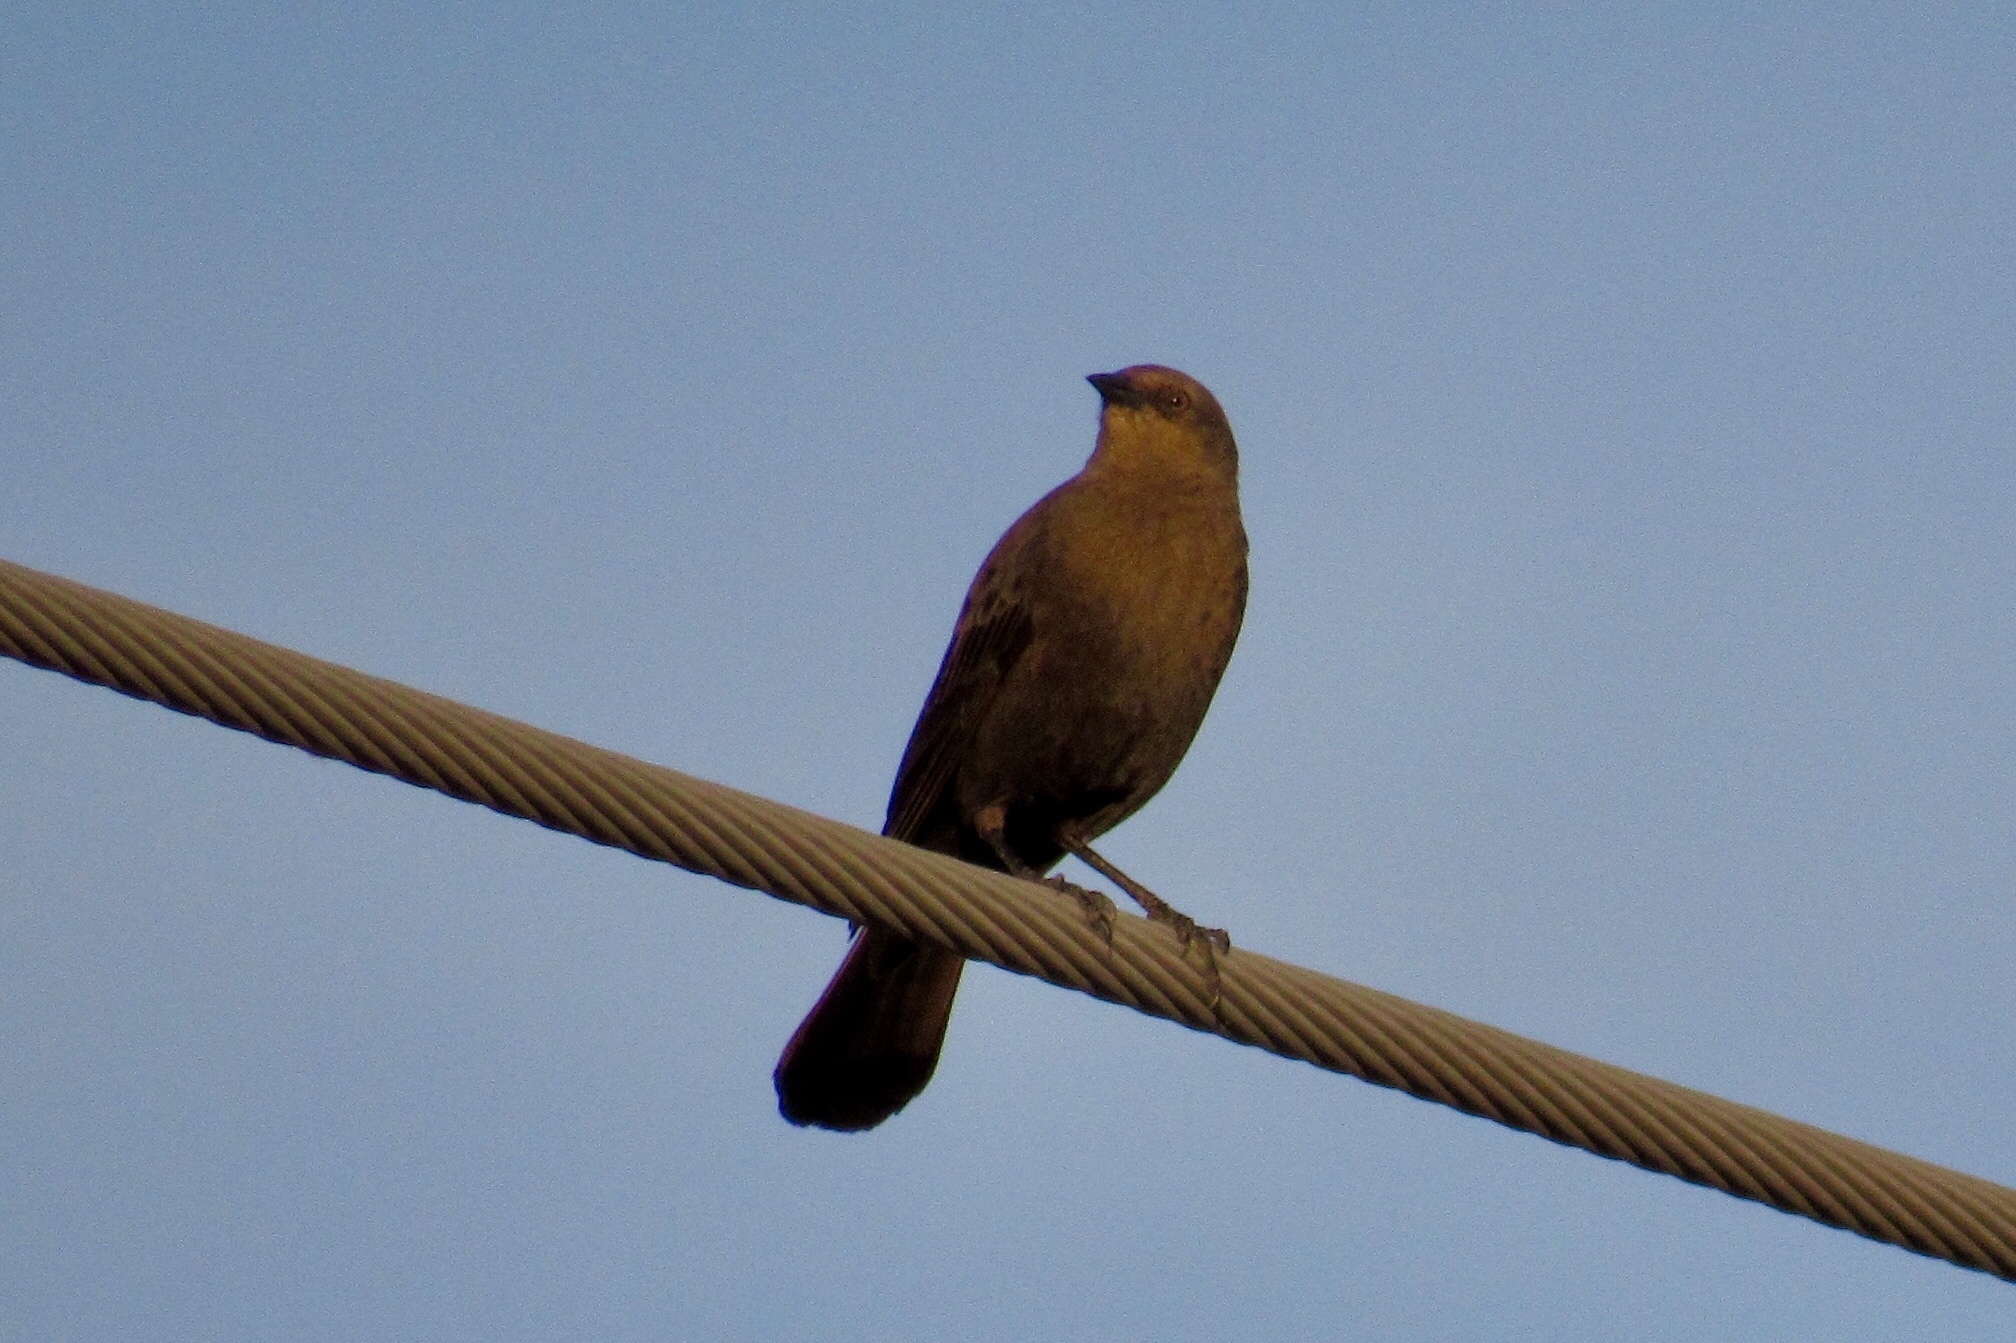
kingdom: Animalia
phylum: Chordata
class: Aves
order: Passeriformes
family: Icteridae
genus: Euphagus
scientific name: Euphagus cyanocephalus
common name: Brewer's blackbird
